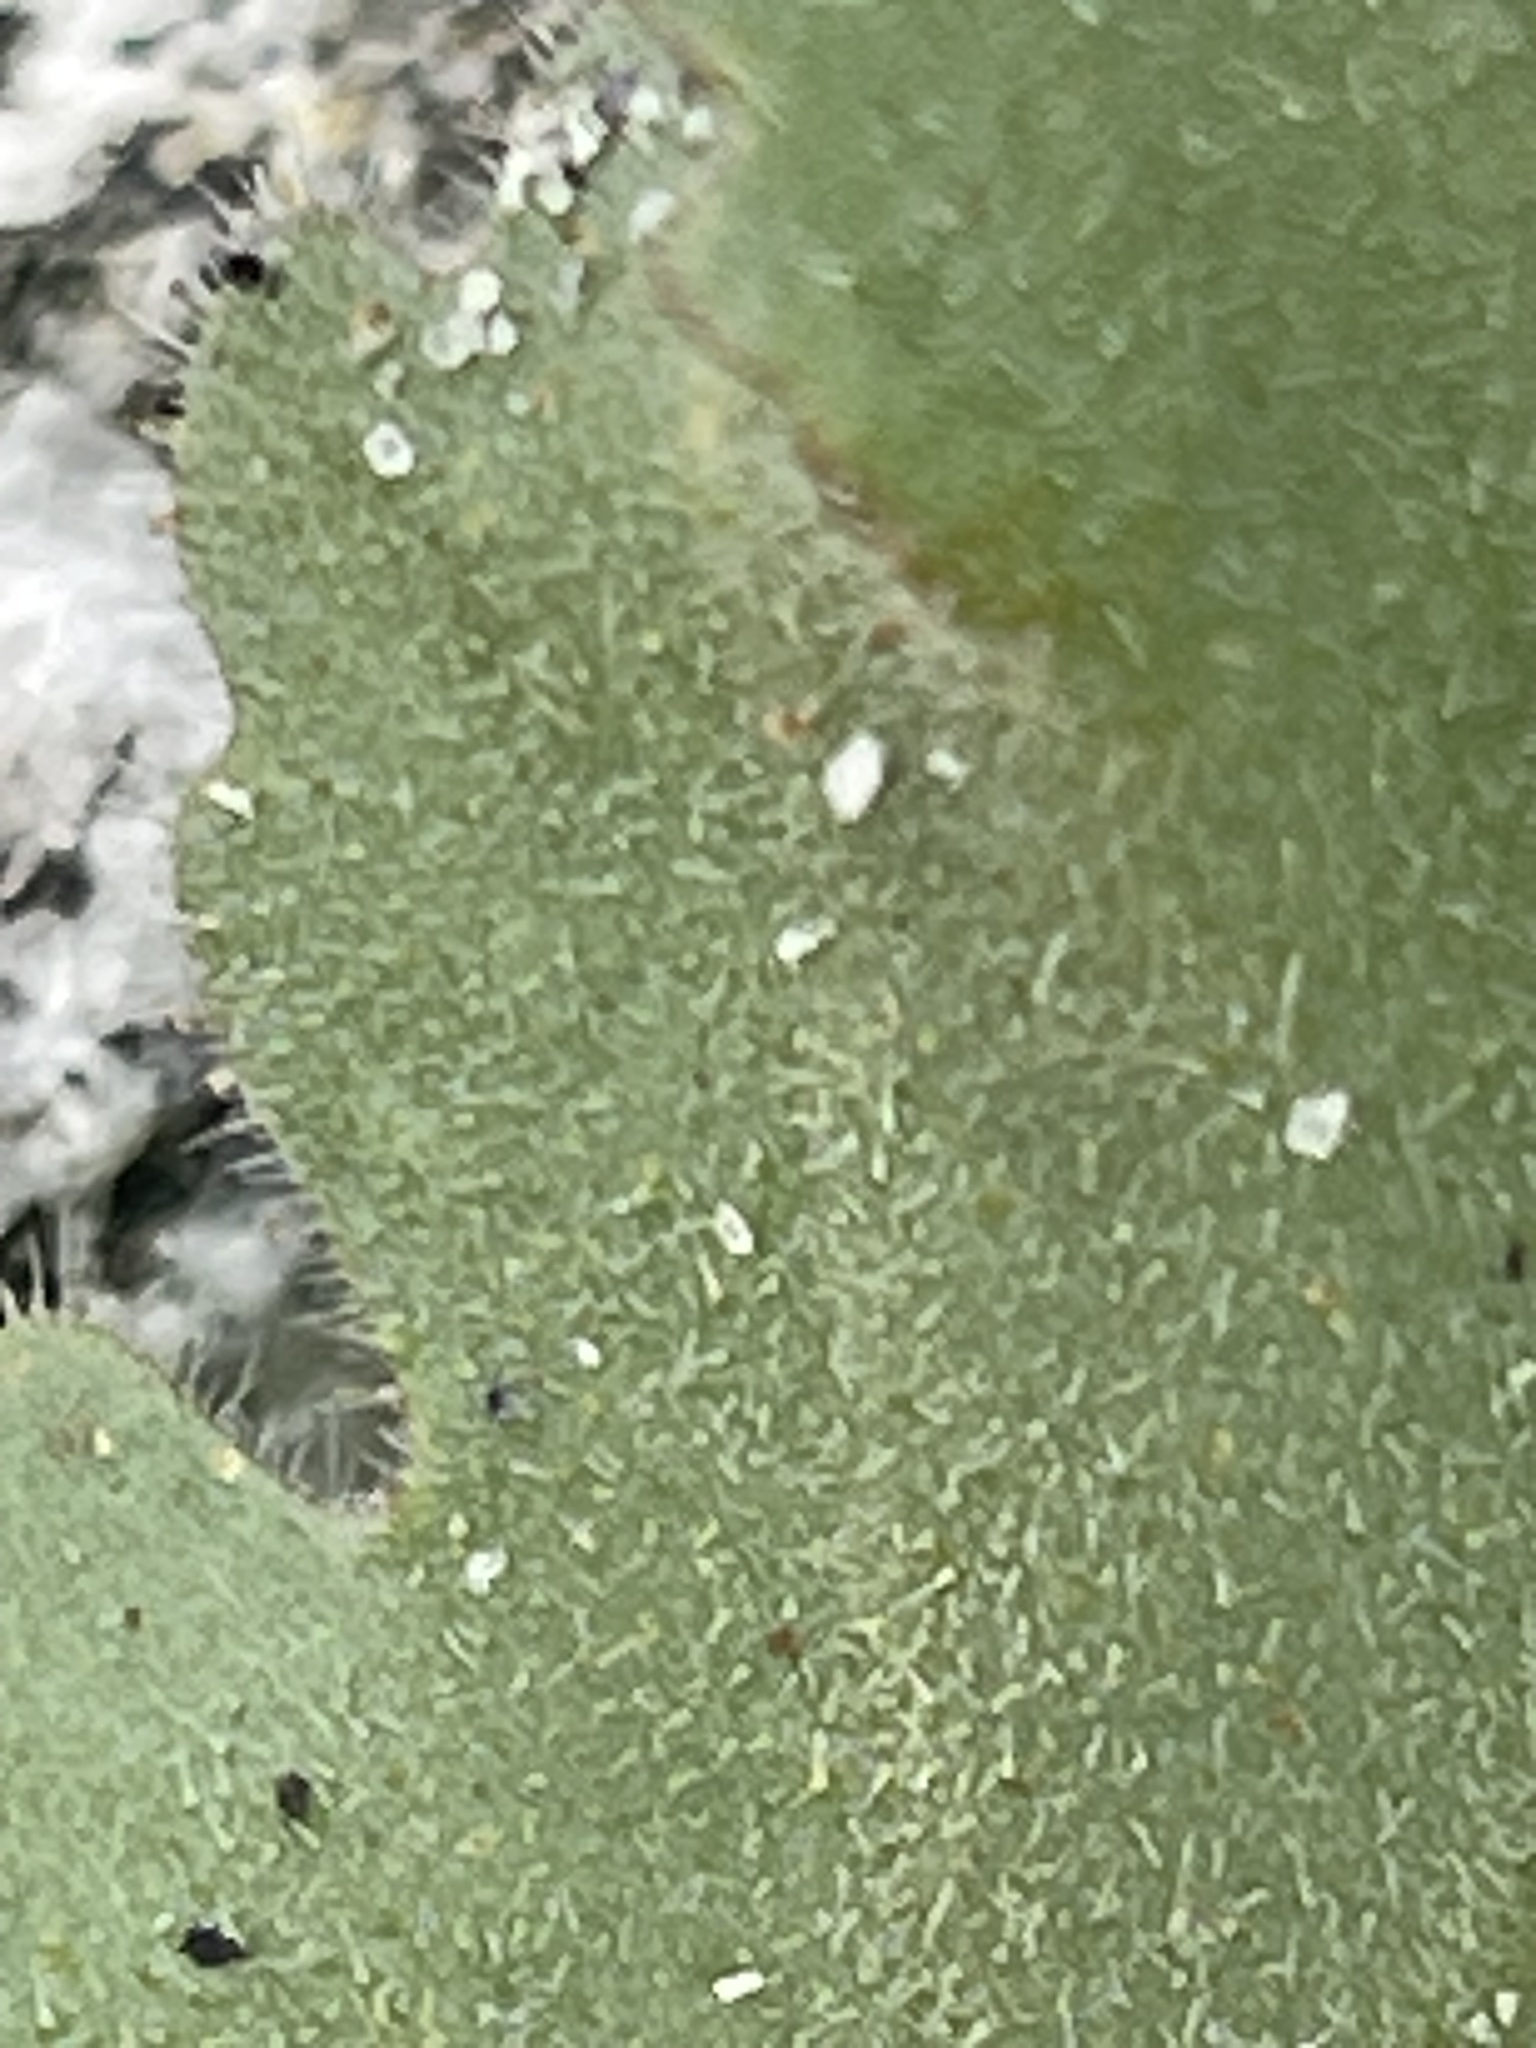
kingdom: Plantae
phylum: Tracheophyta
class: Magnoliopsida
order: Boraginales
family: Hydrophyllaceae
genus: Phacelia
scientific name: Phacelia pedicellata
